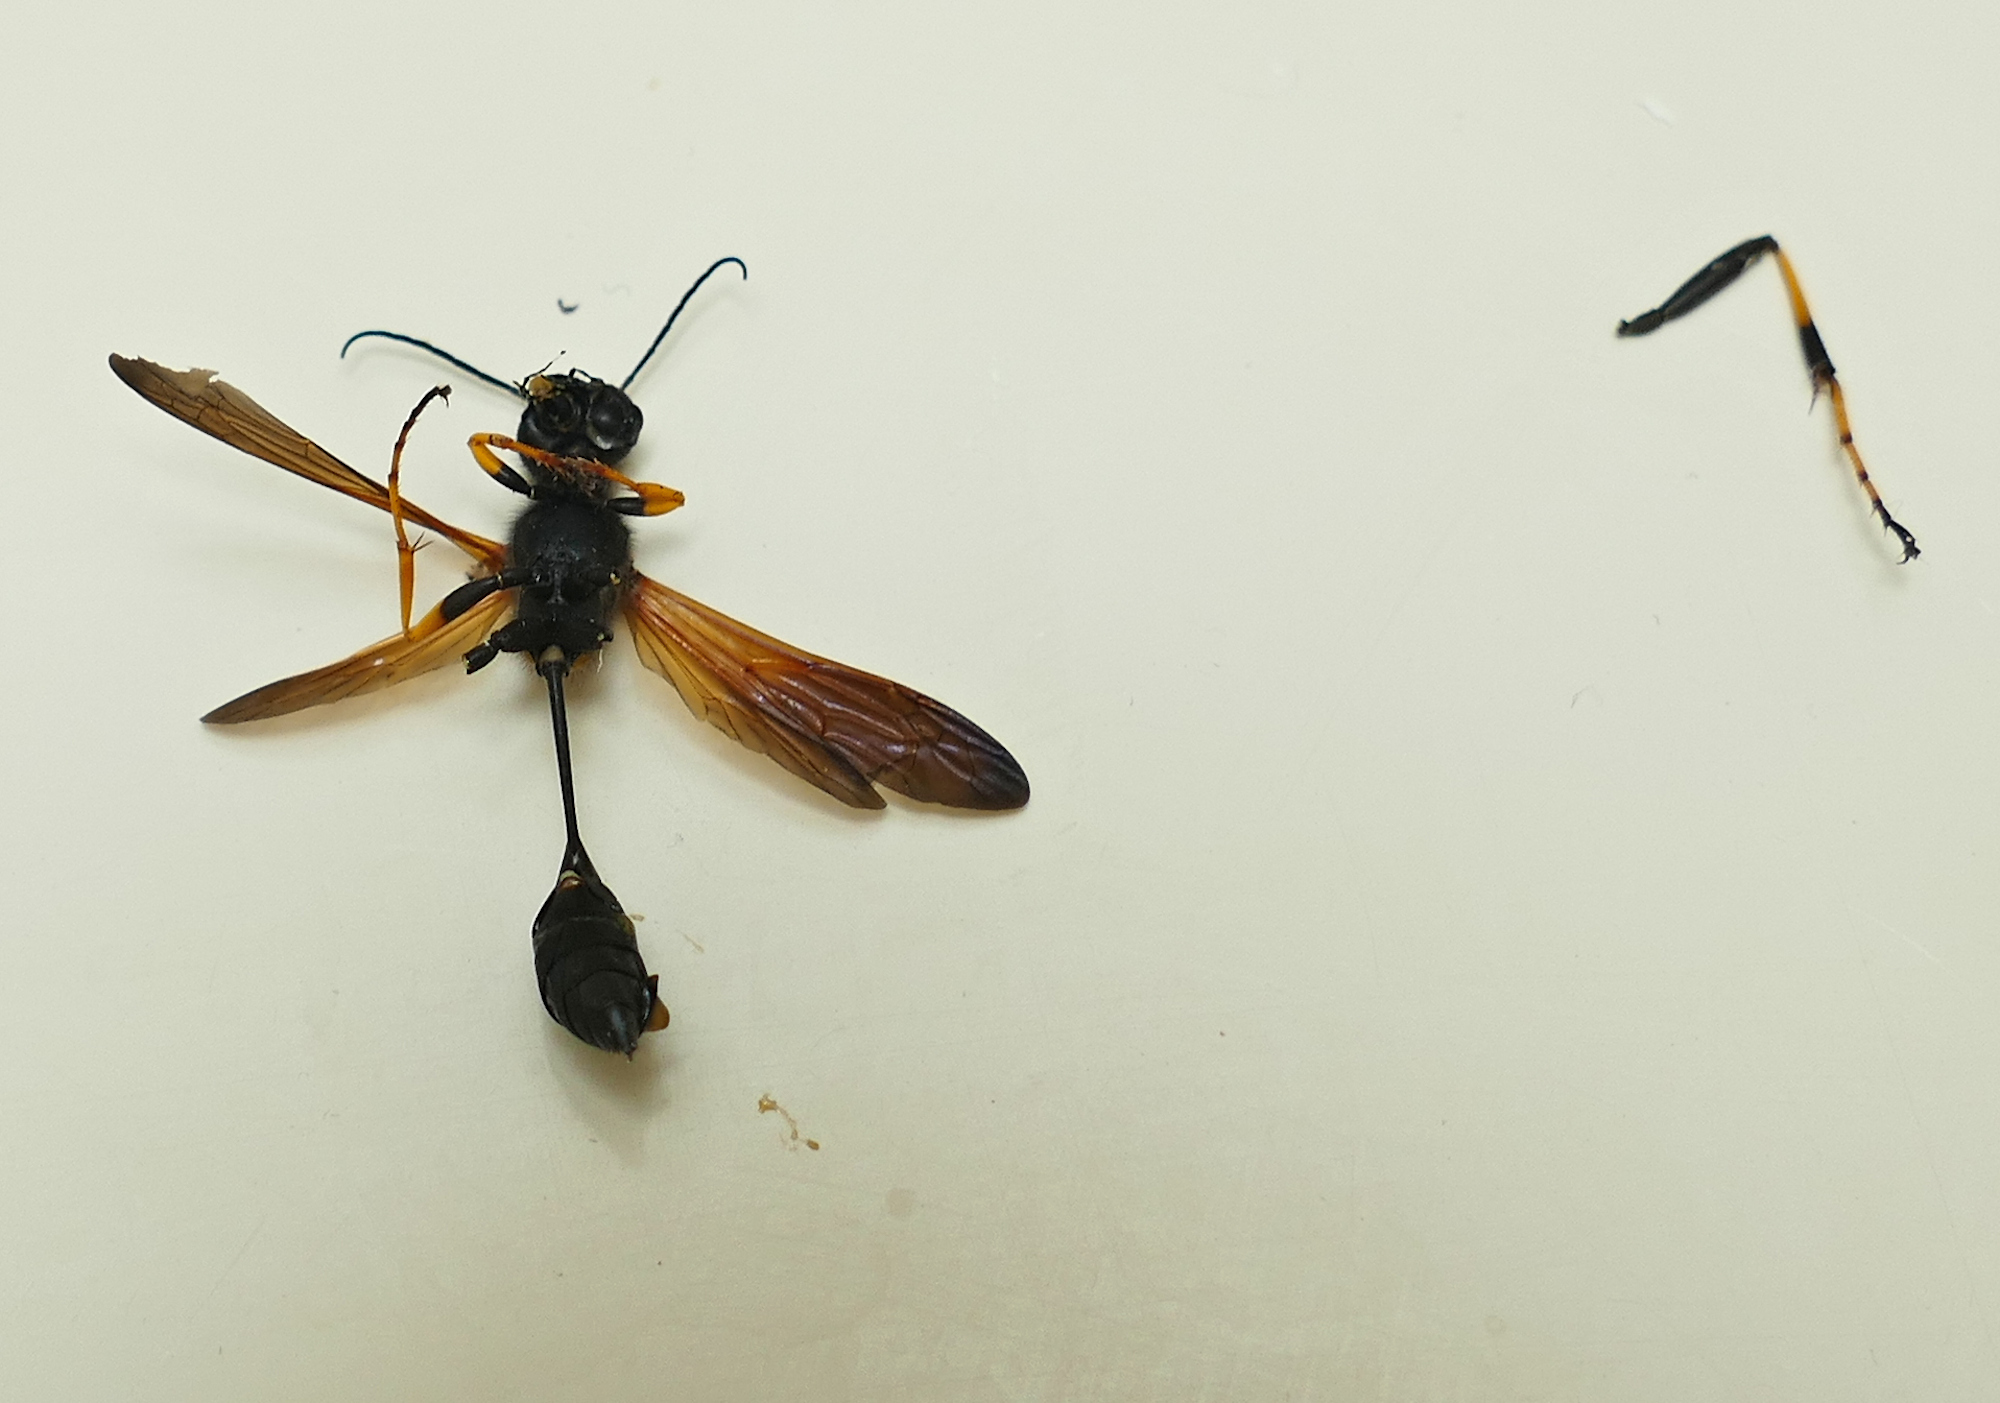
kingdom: Animalia
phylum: Arthropoda
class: Insecta
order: Hymenoptera
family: Sphecidae
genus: Sceliphron
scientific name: Sceliphron caementarium
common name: Mud dauber
